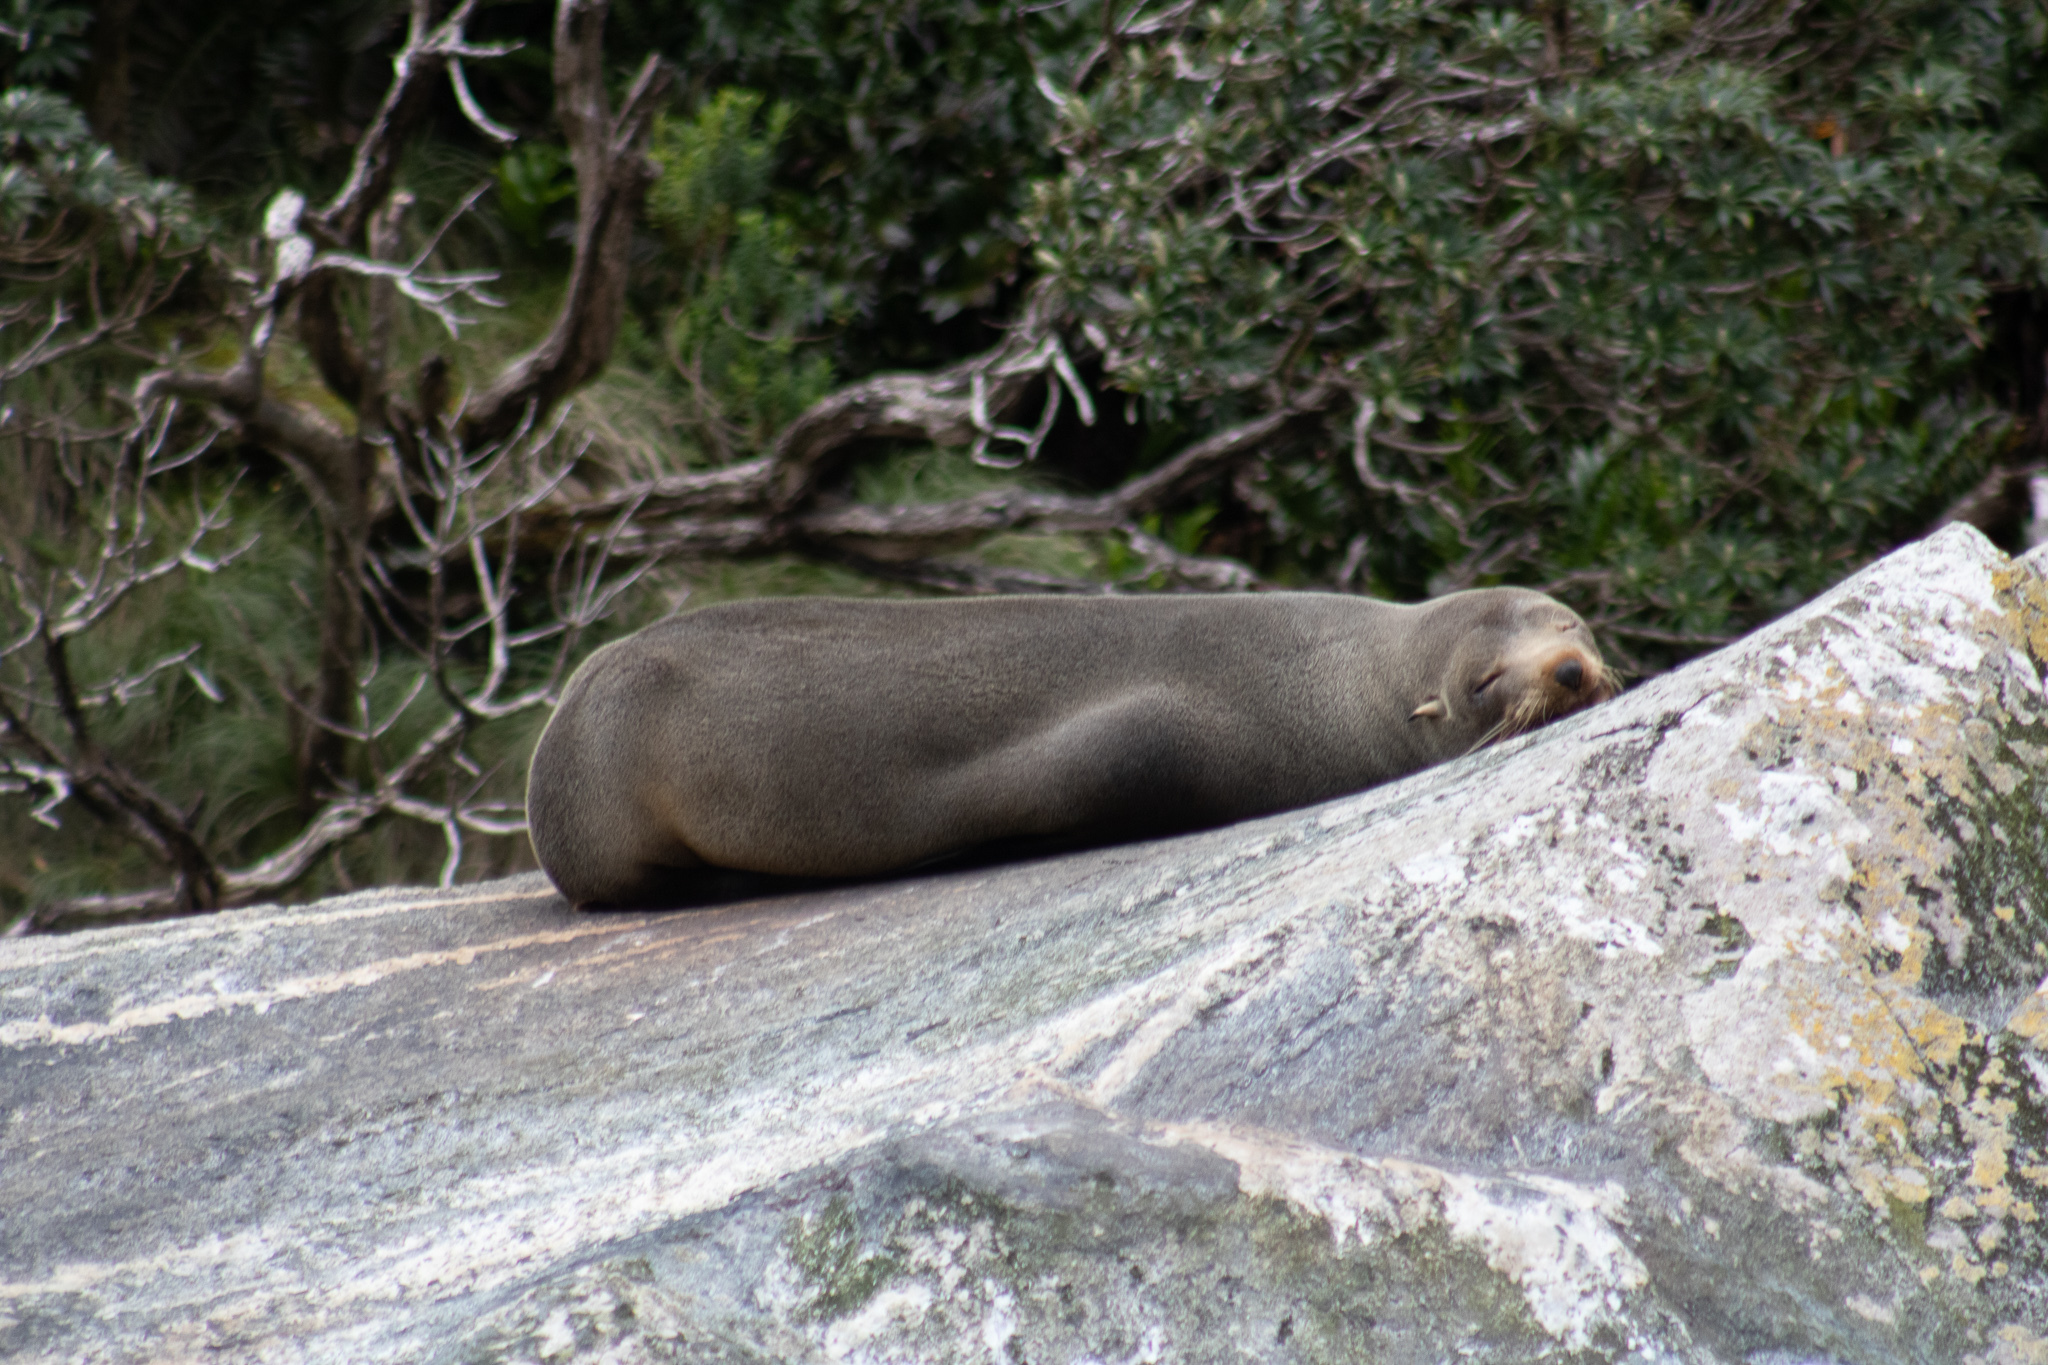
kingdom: Animalia
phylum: Chordata
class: Mammalia
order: Carnivora
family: Otariidae
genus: Arctocephalus
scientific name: Arctocephalus forsteri
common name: New zealand fur seal
